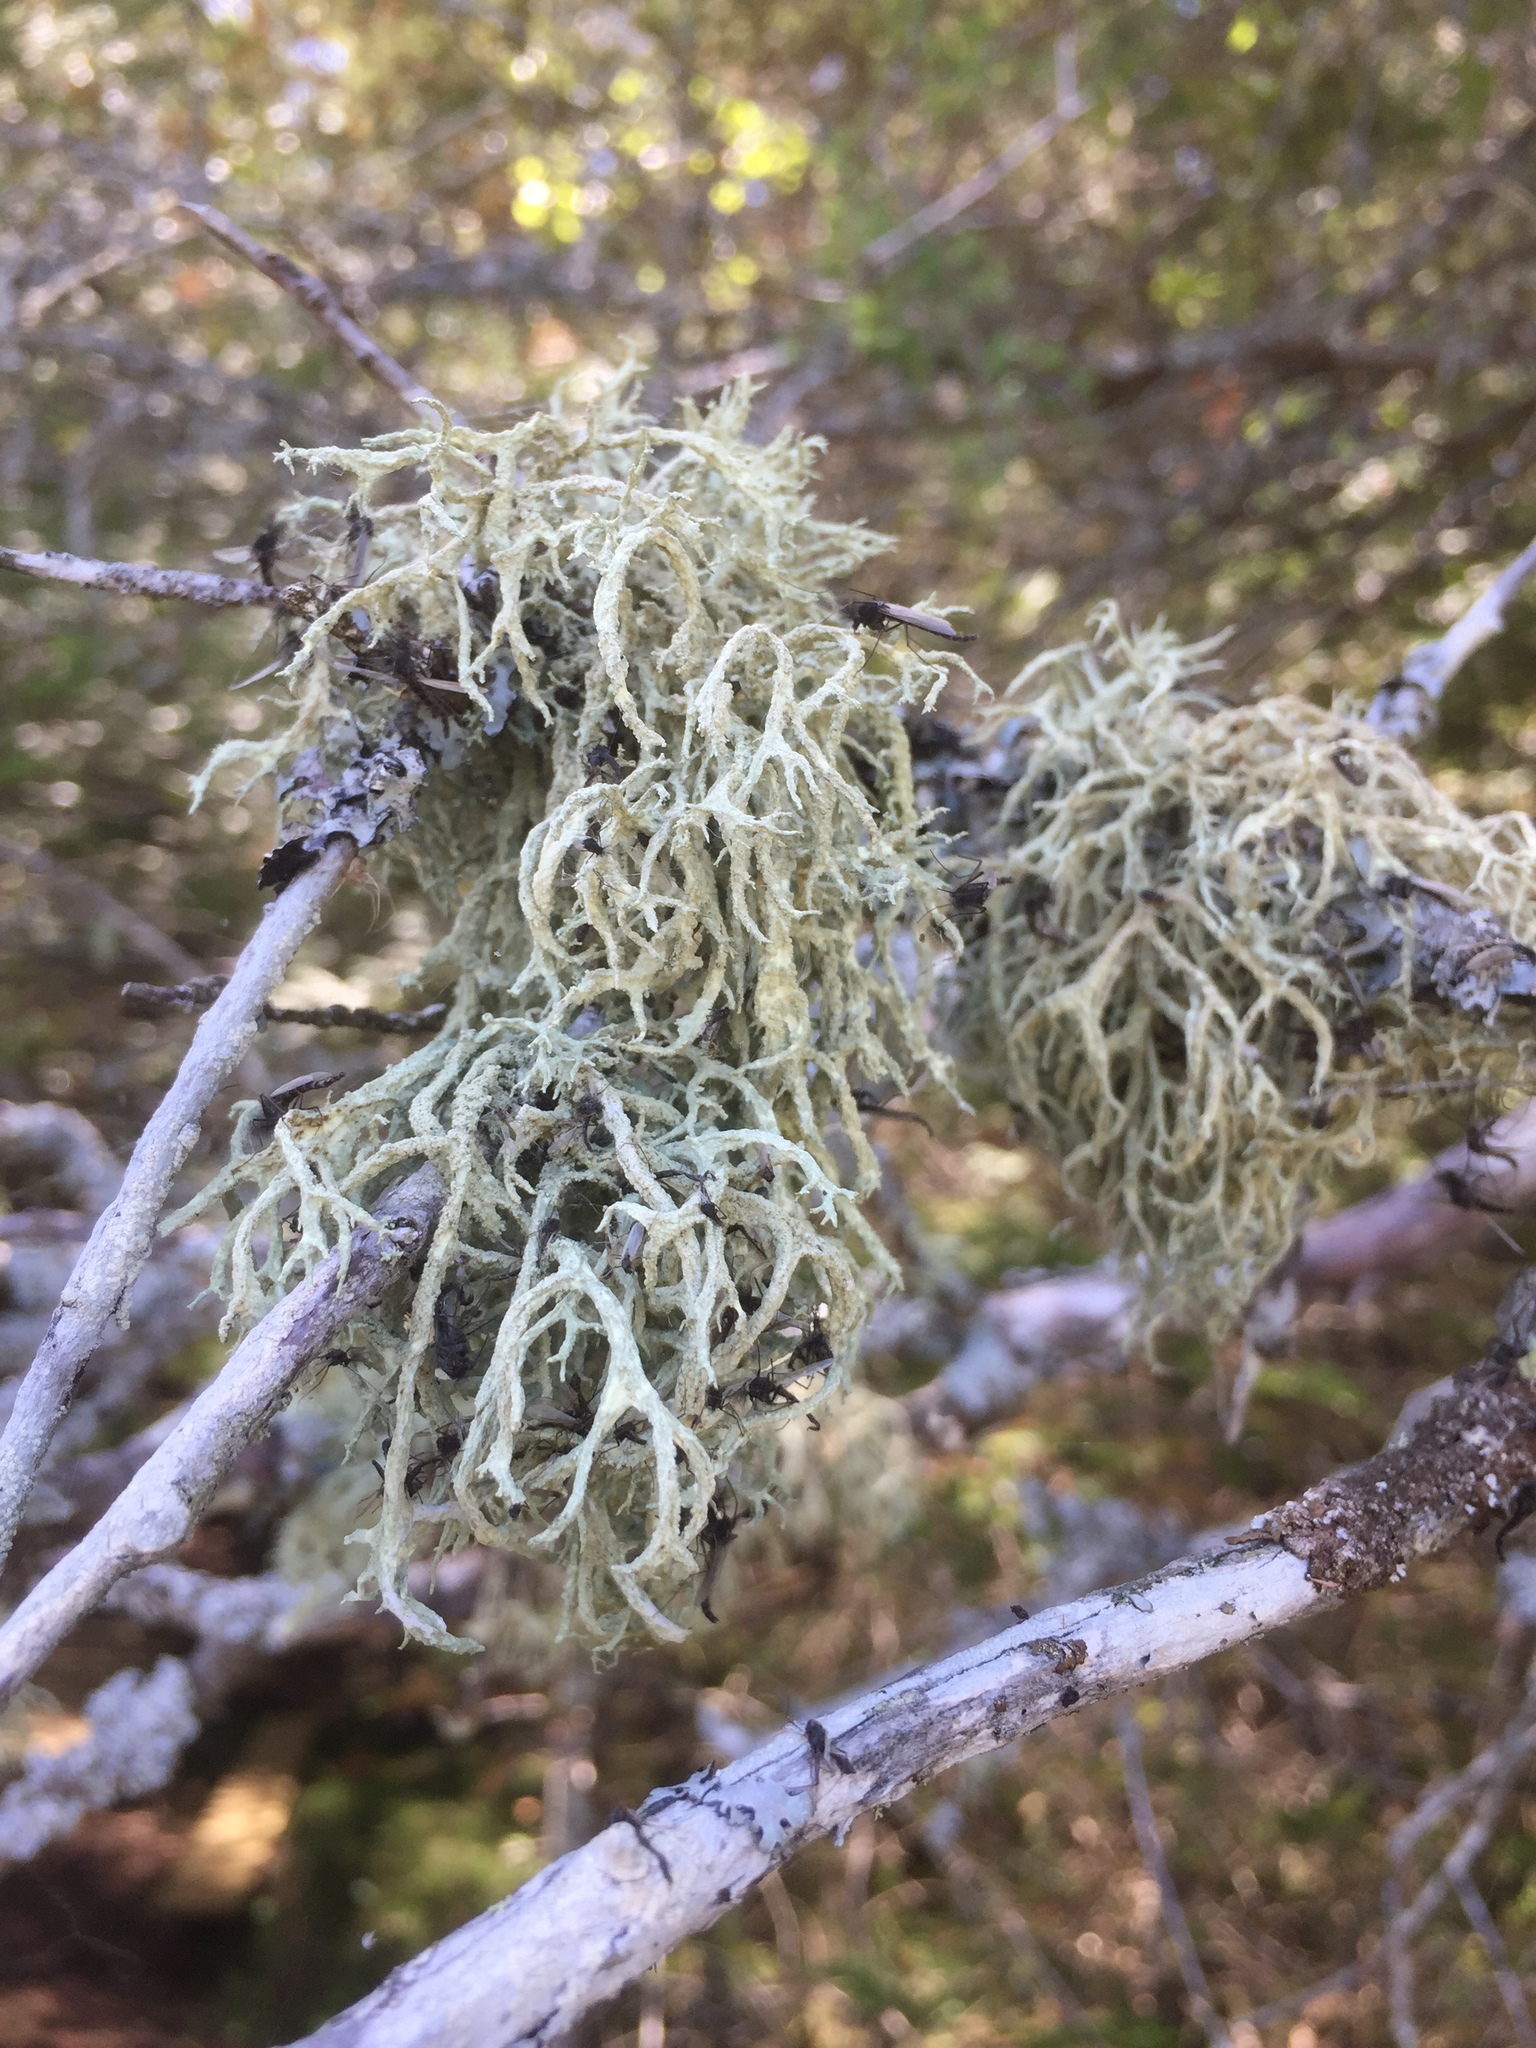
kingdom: Fungi
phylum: Ascomycota
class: Lecanoromycetes
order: Lecanorales
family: Parmeliaceae
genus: Evernia
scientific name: Evernia mesomorpha
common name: Boreal oak moss lichen
